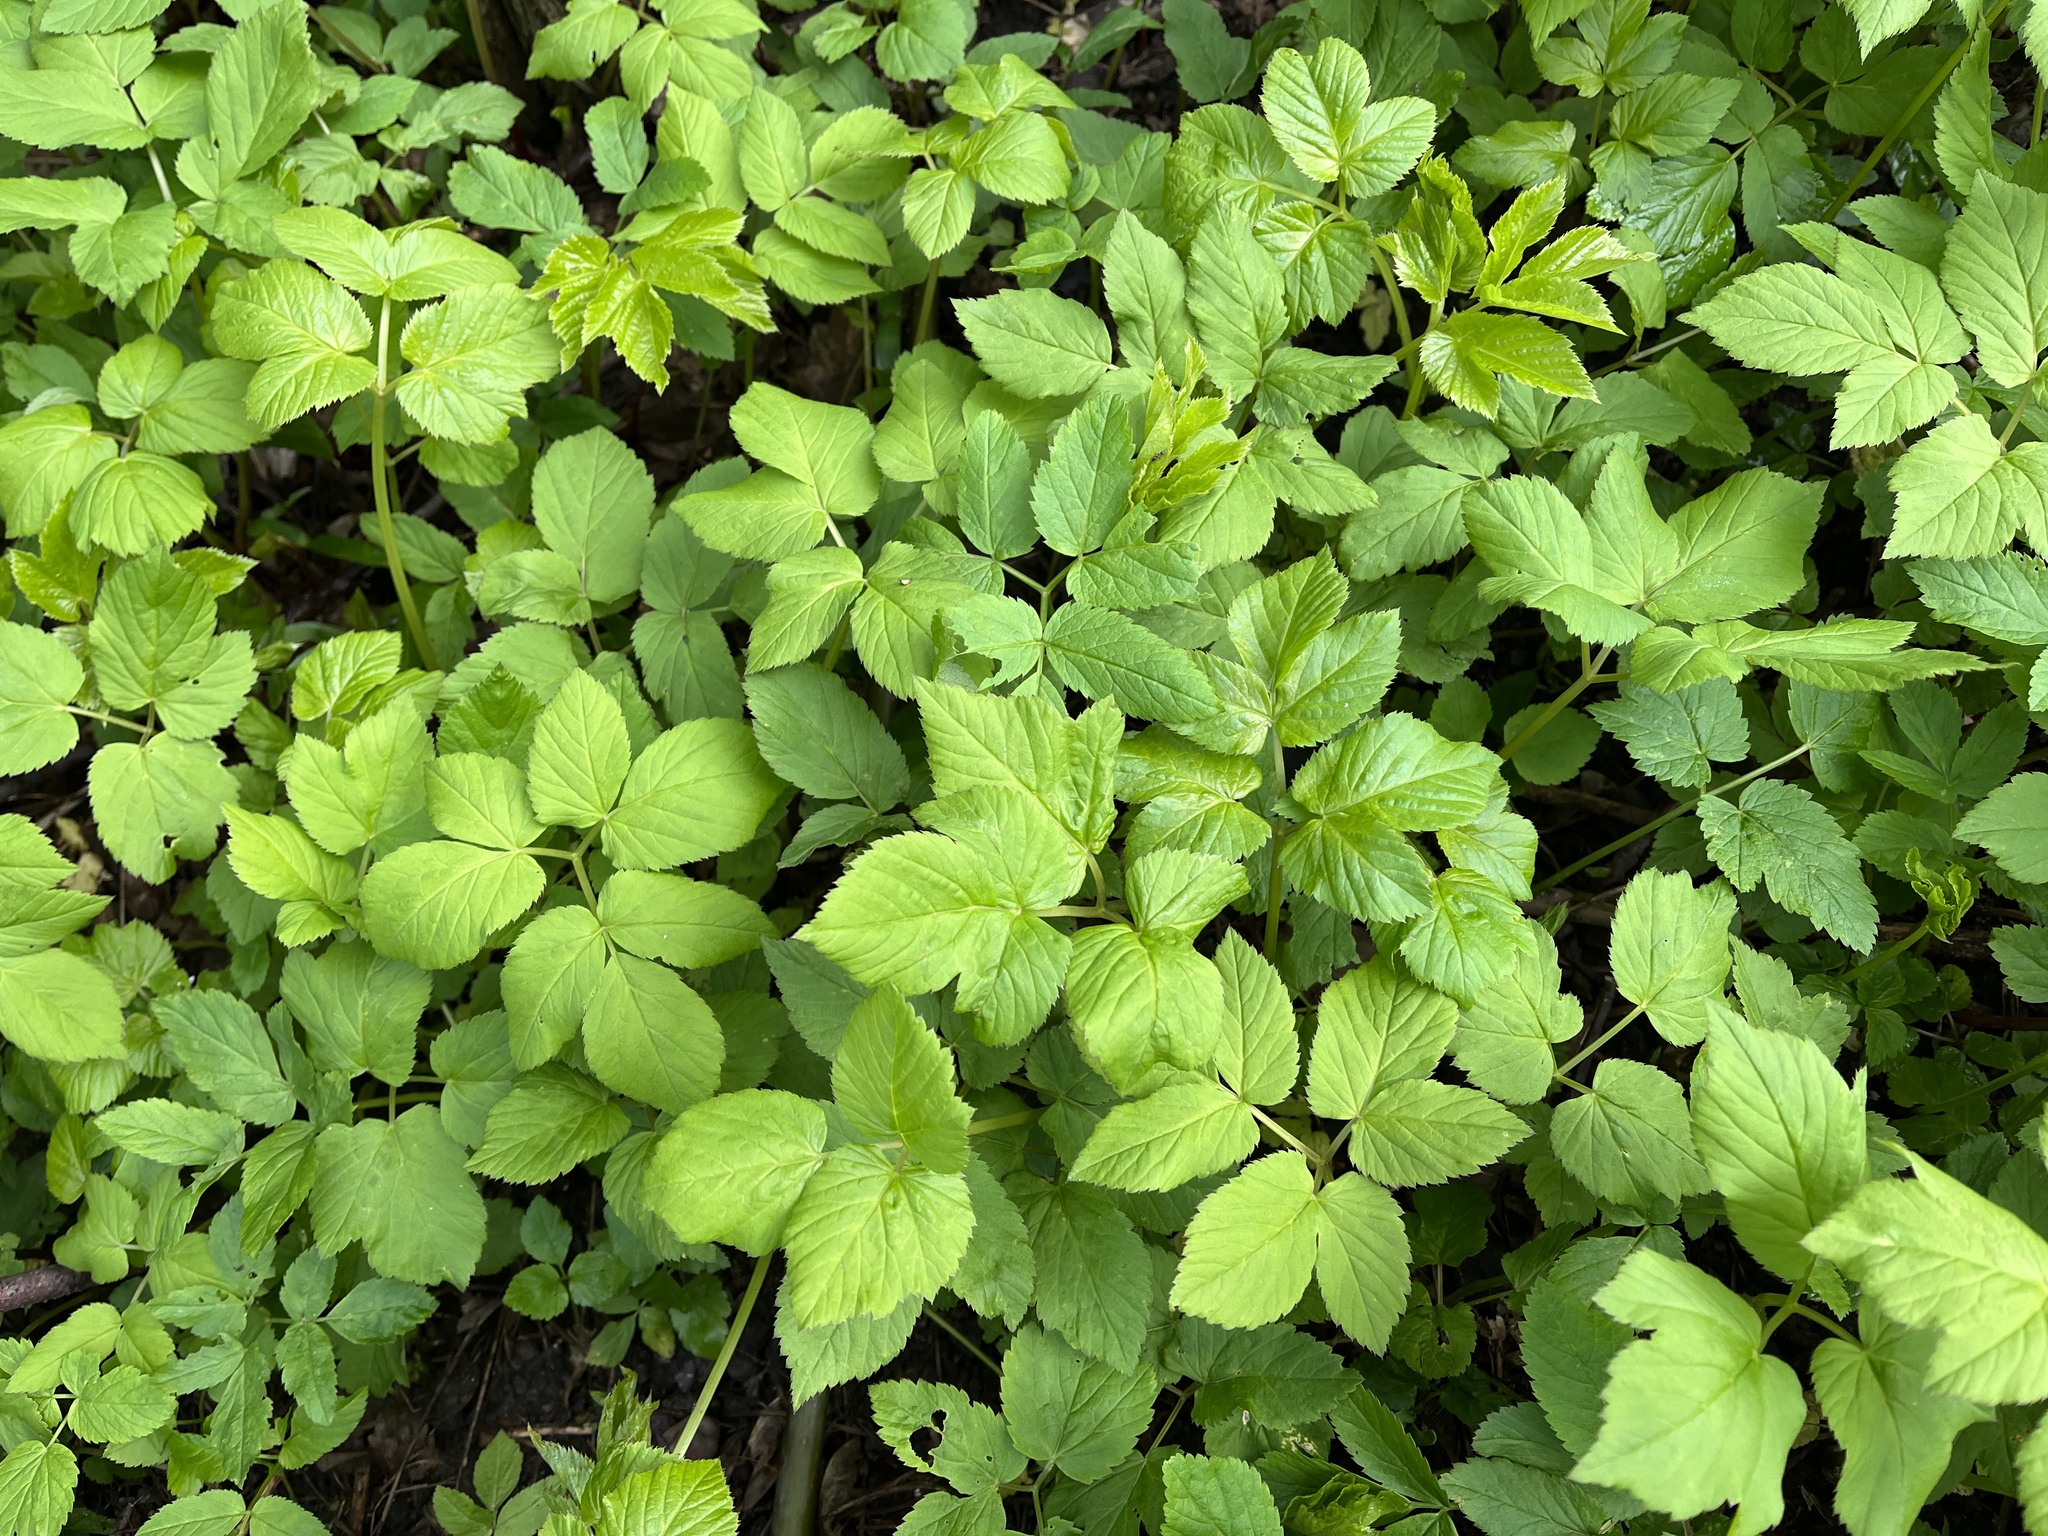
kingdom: Plantae
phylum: Tracheophyta
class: Magnoliopsida
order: Apiales
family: Apiaceae
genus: Aegopodium
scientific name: Aegopodium podagraria
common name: Ground-elder
